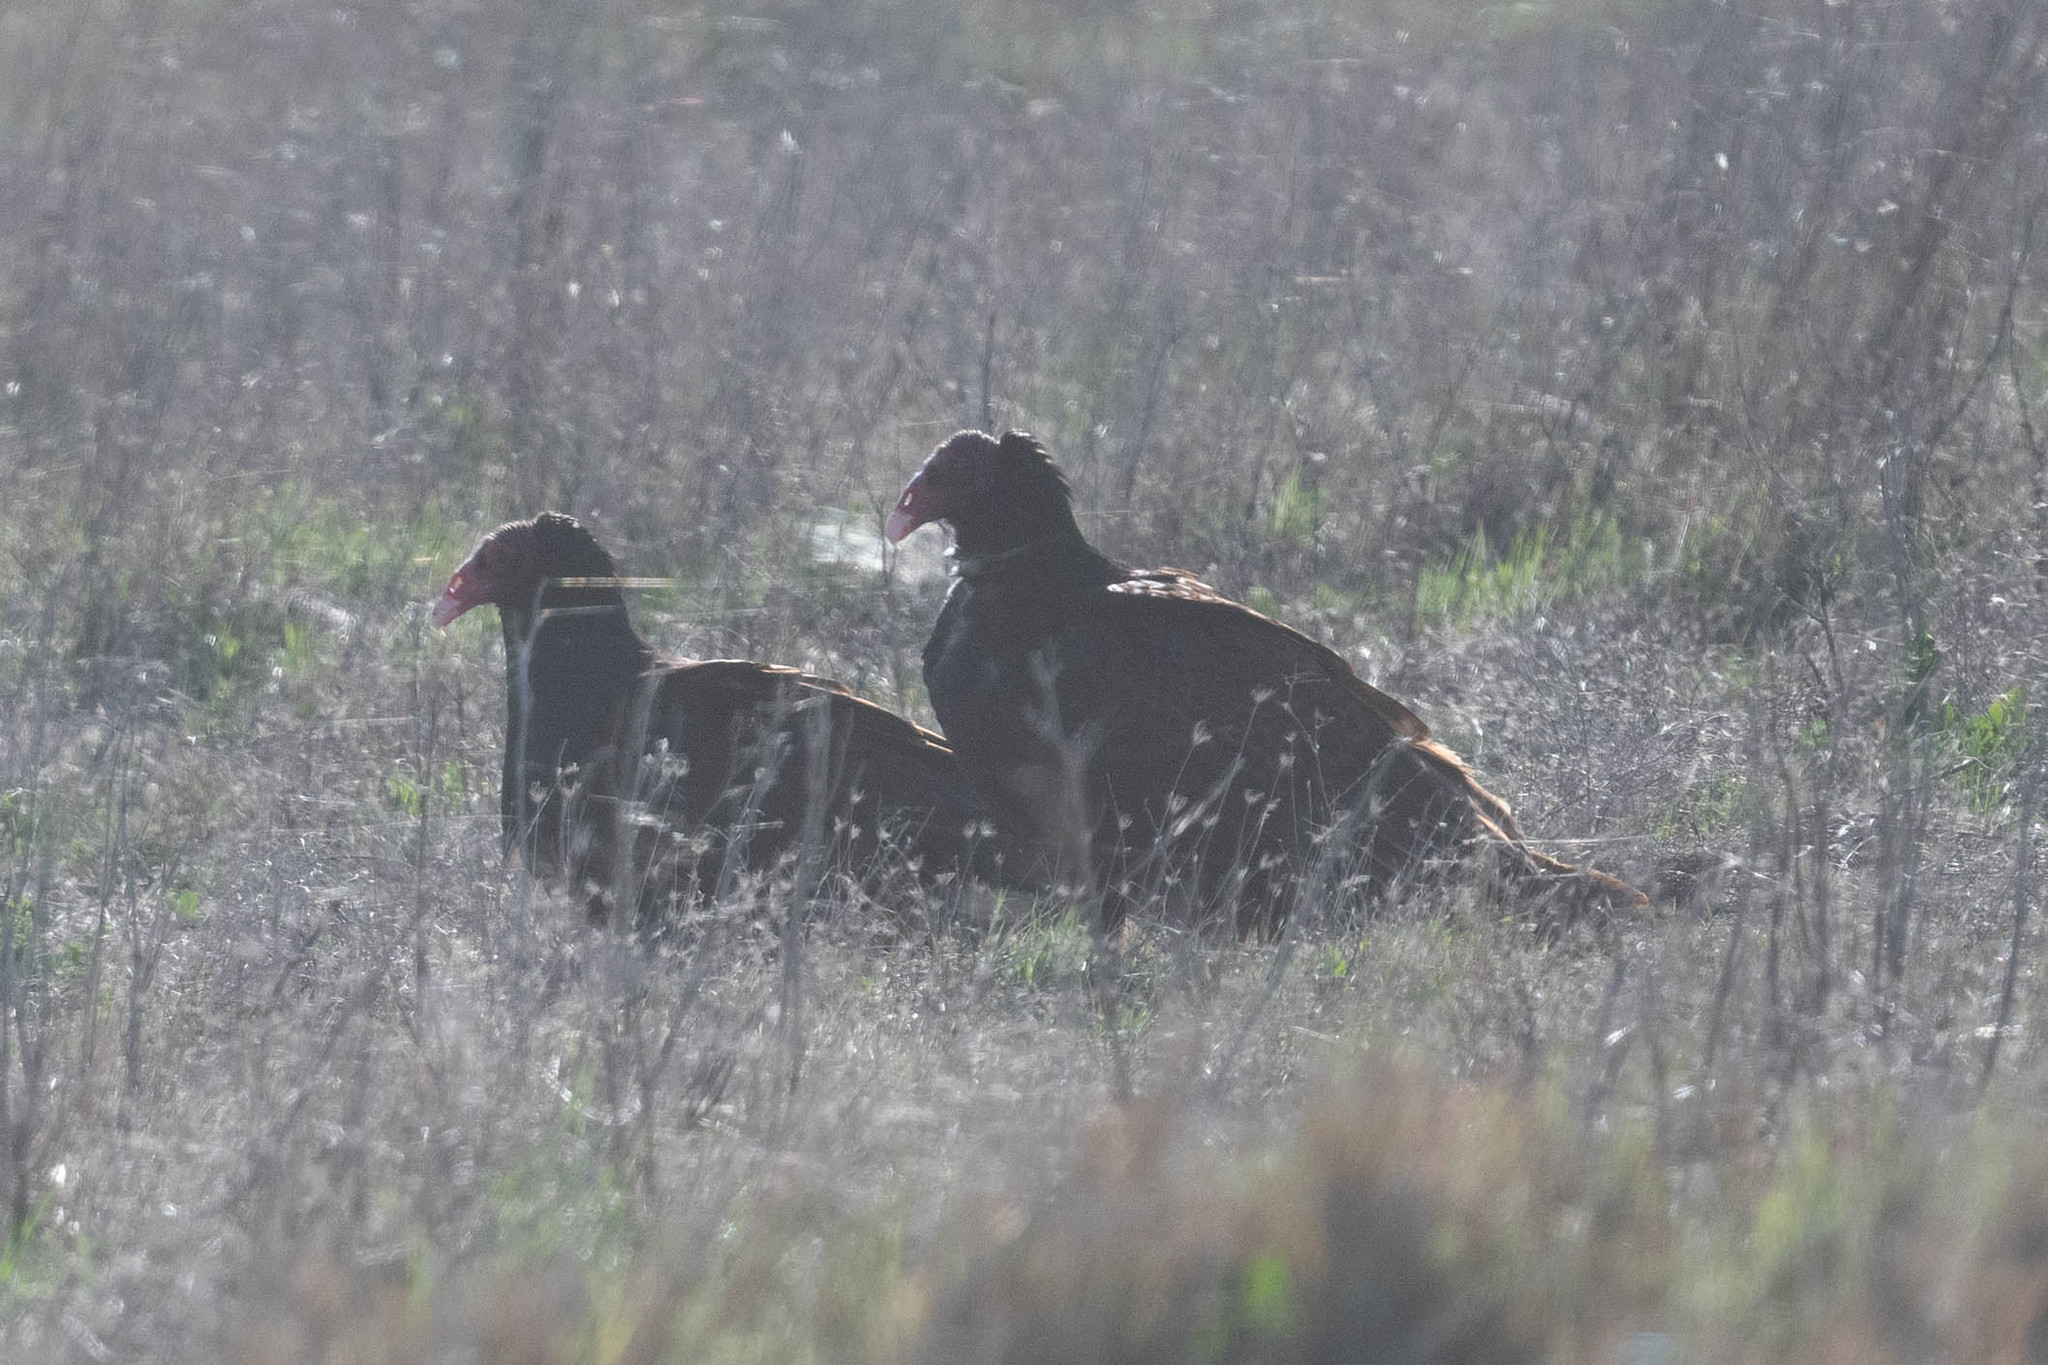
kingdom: Animalia
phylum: Chordata
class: Aves
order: Accipitriformes
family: Cathartidae
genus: Cathartes
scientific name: Cathartes aura
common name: Turkey vulture
